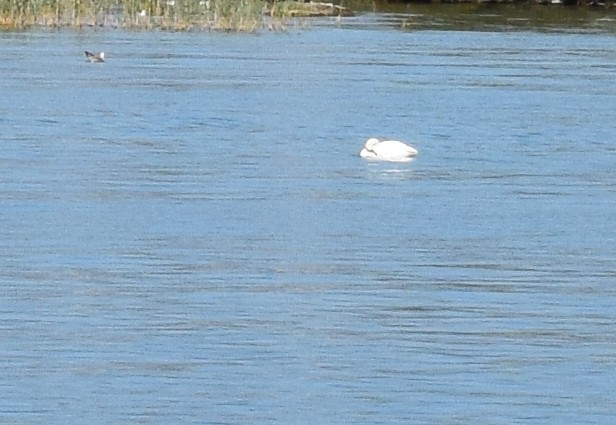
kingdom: Animalia
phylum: Chordata
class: Aves
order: Anseriformes
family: Anatidae
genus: Cygnus
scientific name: Cygnus olor
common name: Mute swan
